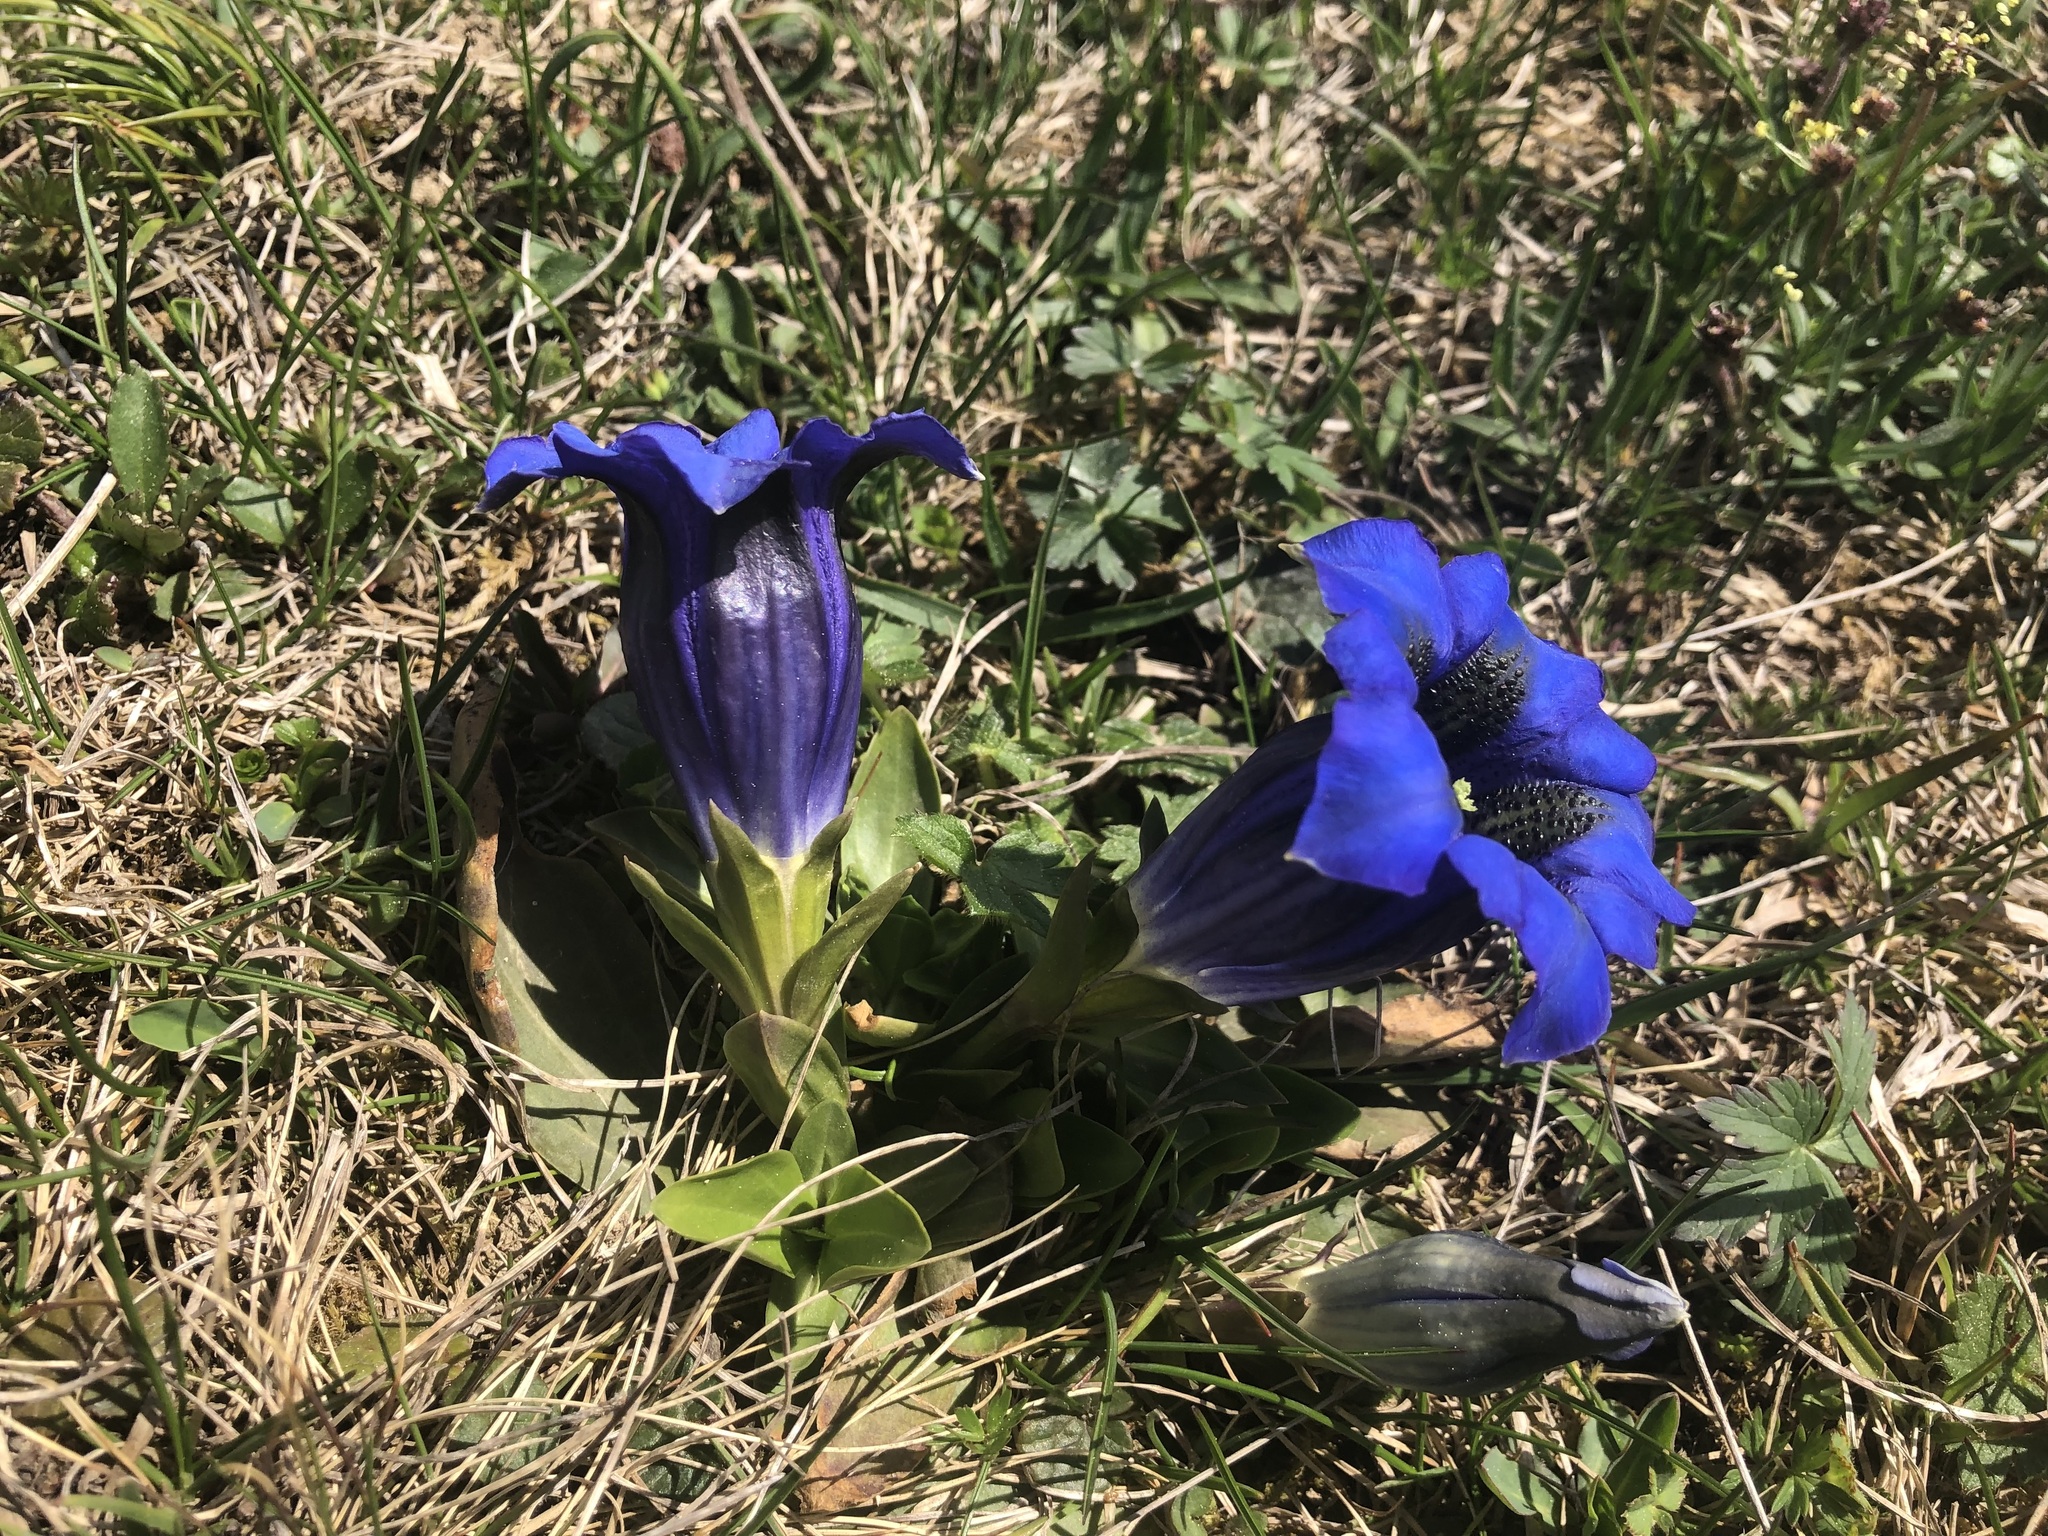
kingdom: Plantae
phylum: Tracheophyta
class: Magnoliopsida
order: Gentianales
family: Gentianaceae
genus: Gentiana
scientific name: Gentiana acaulis
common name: Trumpet gentian
